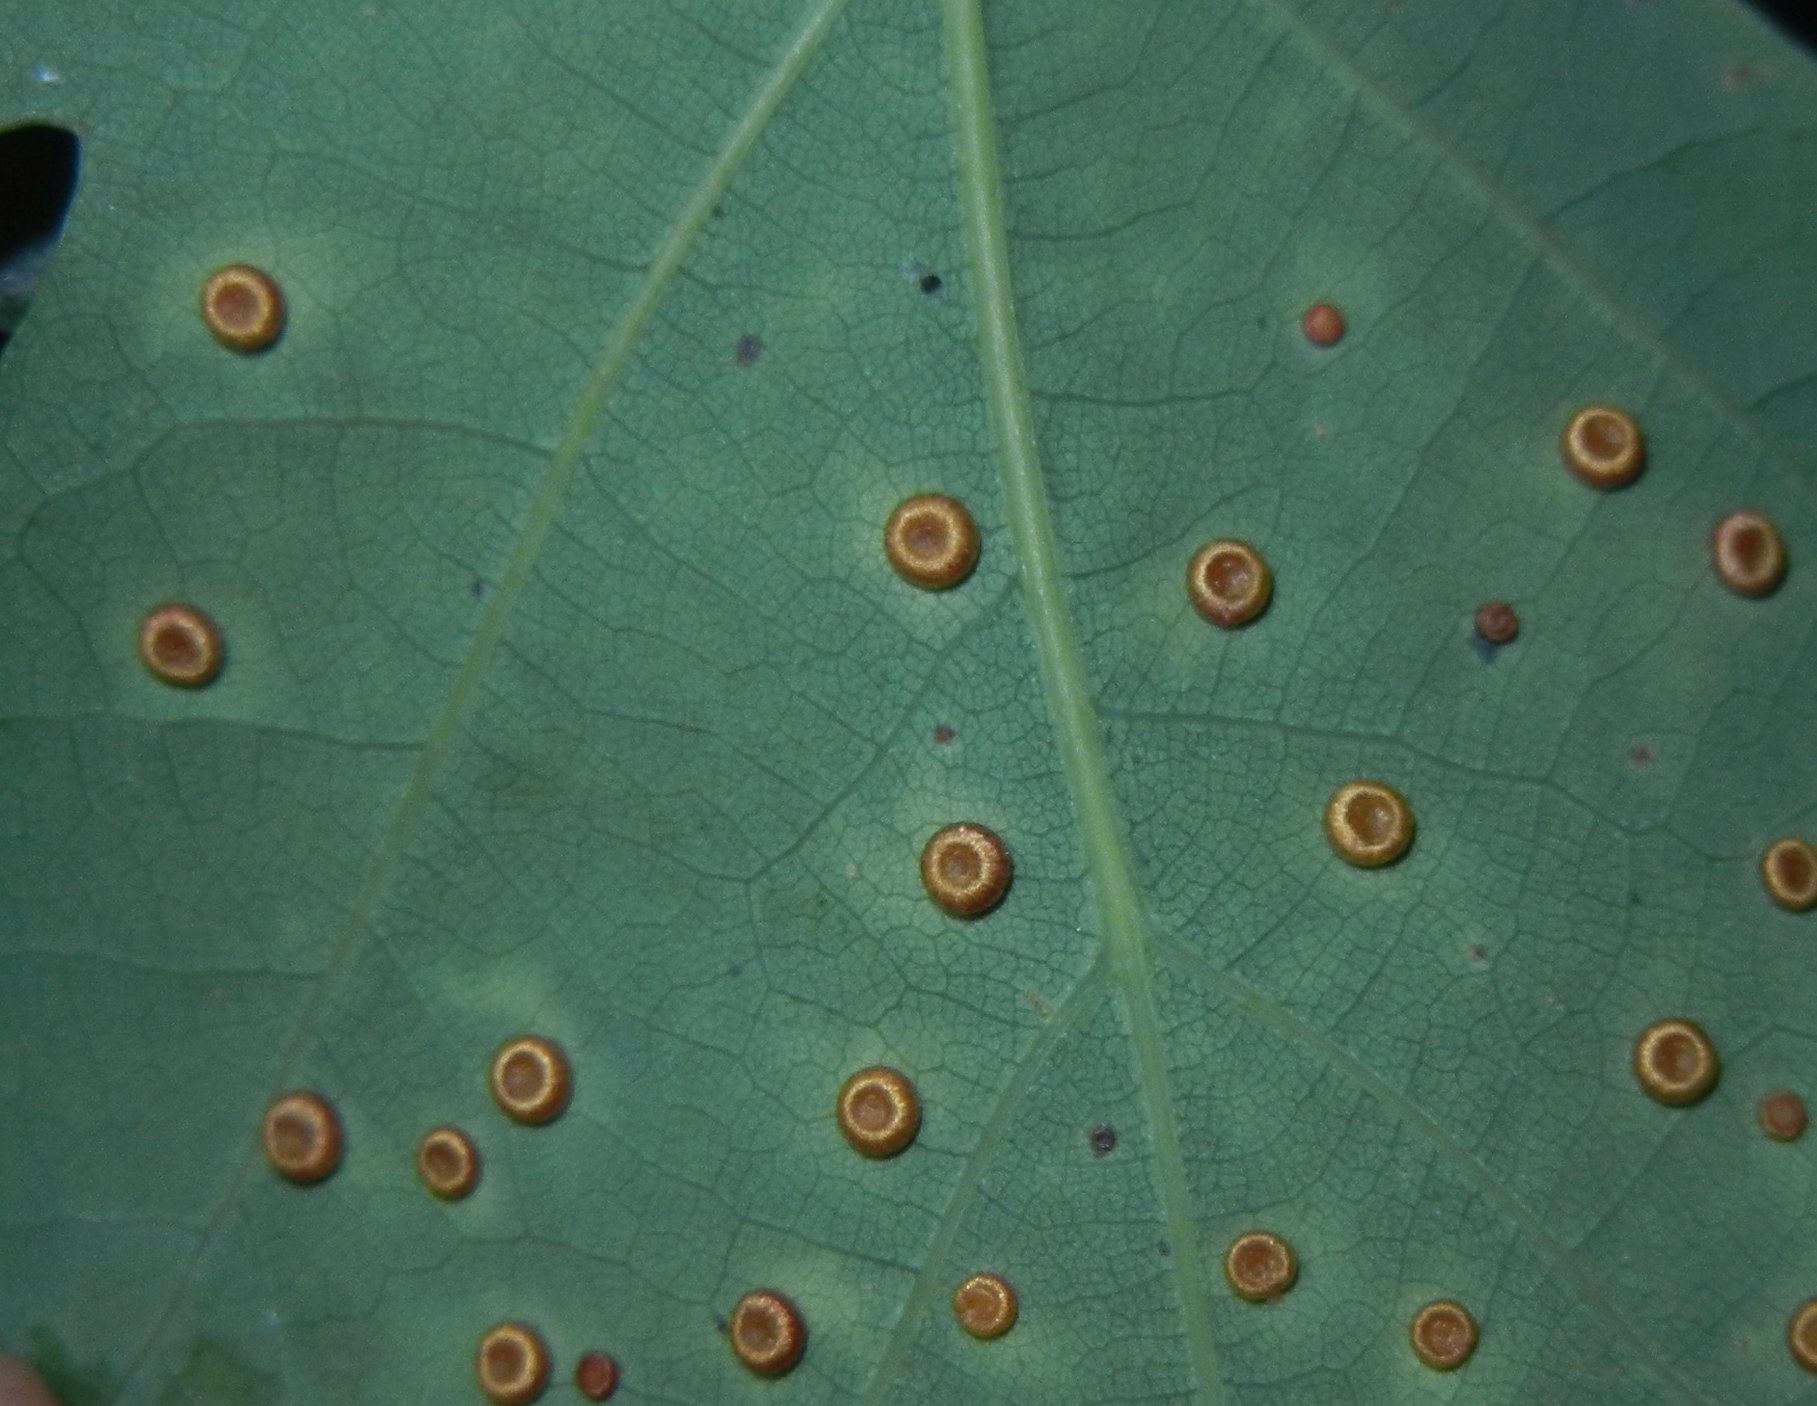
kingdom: Animalia
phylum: Arthropoda
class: Insecta
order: Hymenoptera
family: Cynipidae
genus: Neuroterus
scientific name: Neuroterus numismalis
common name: Silk-button spangle gall
